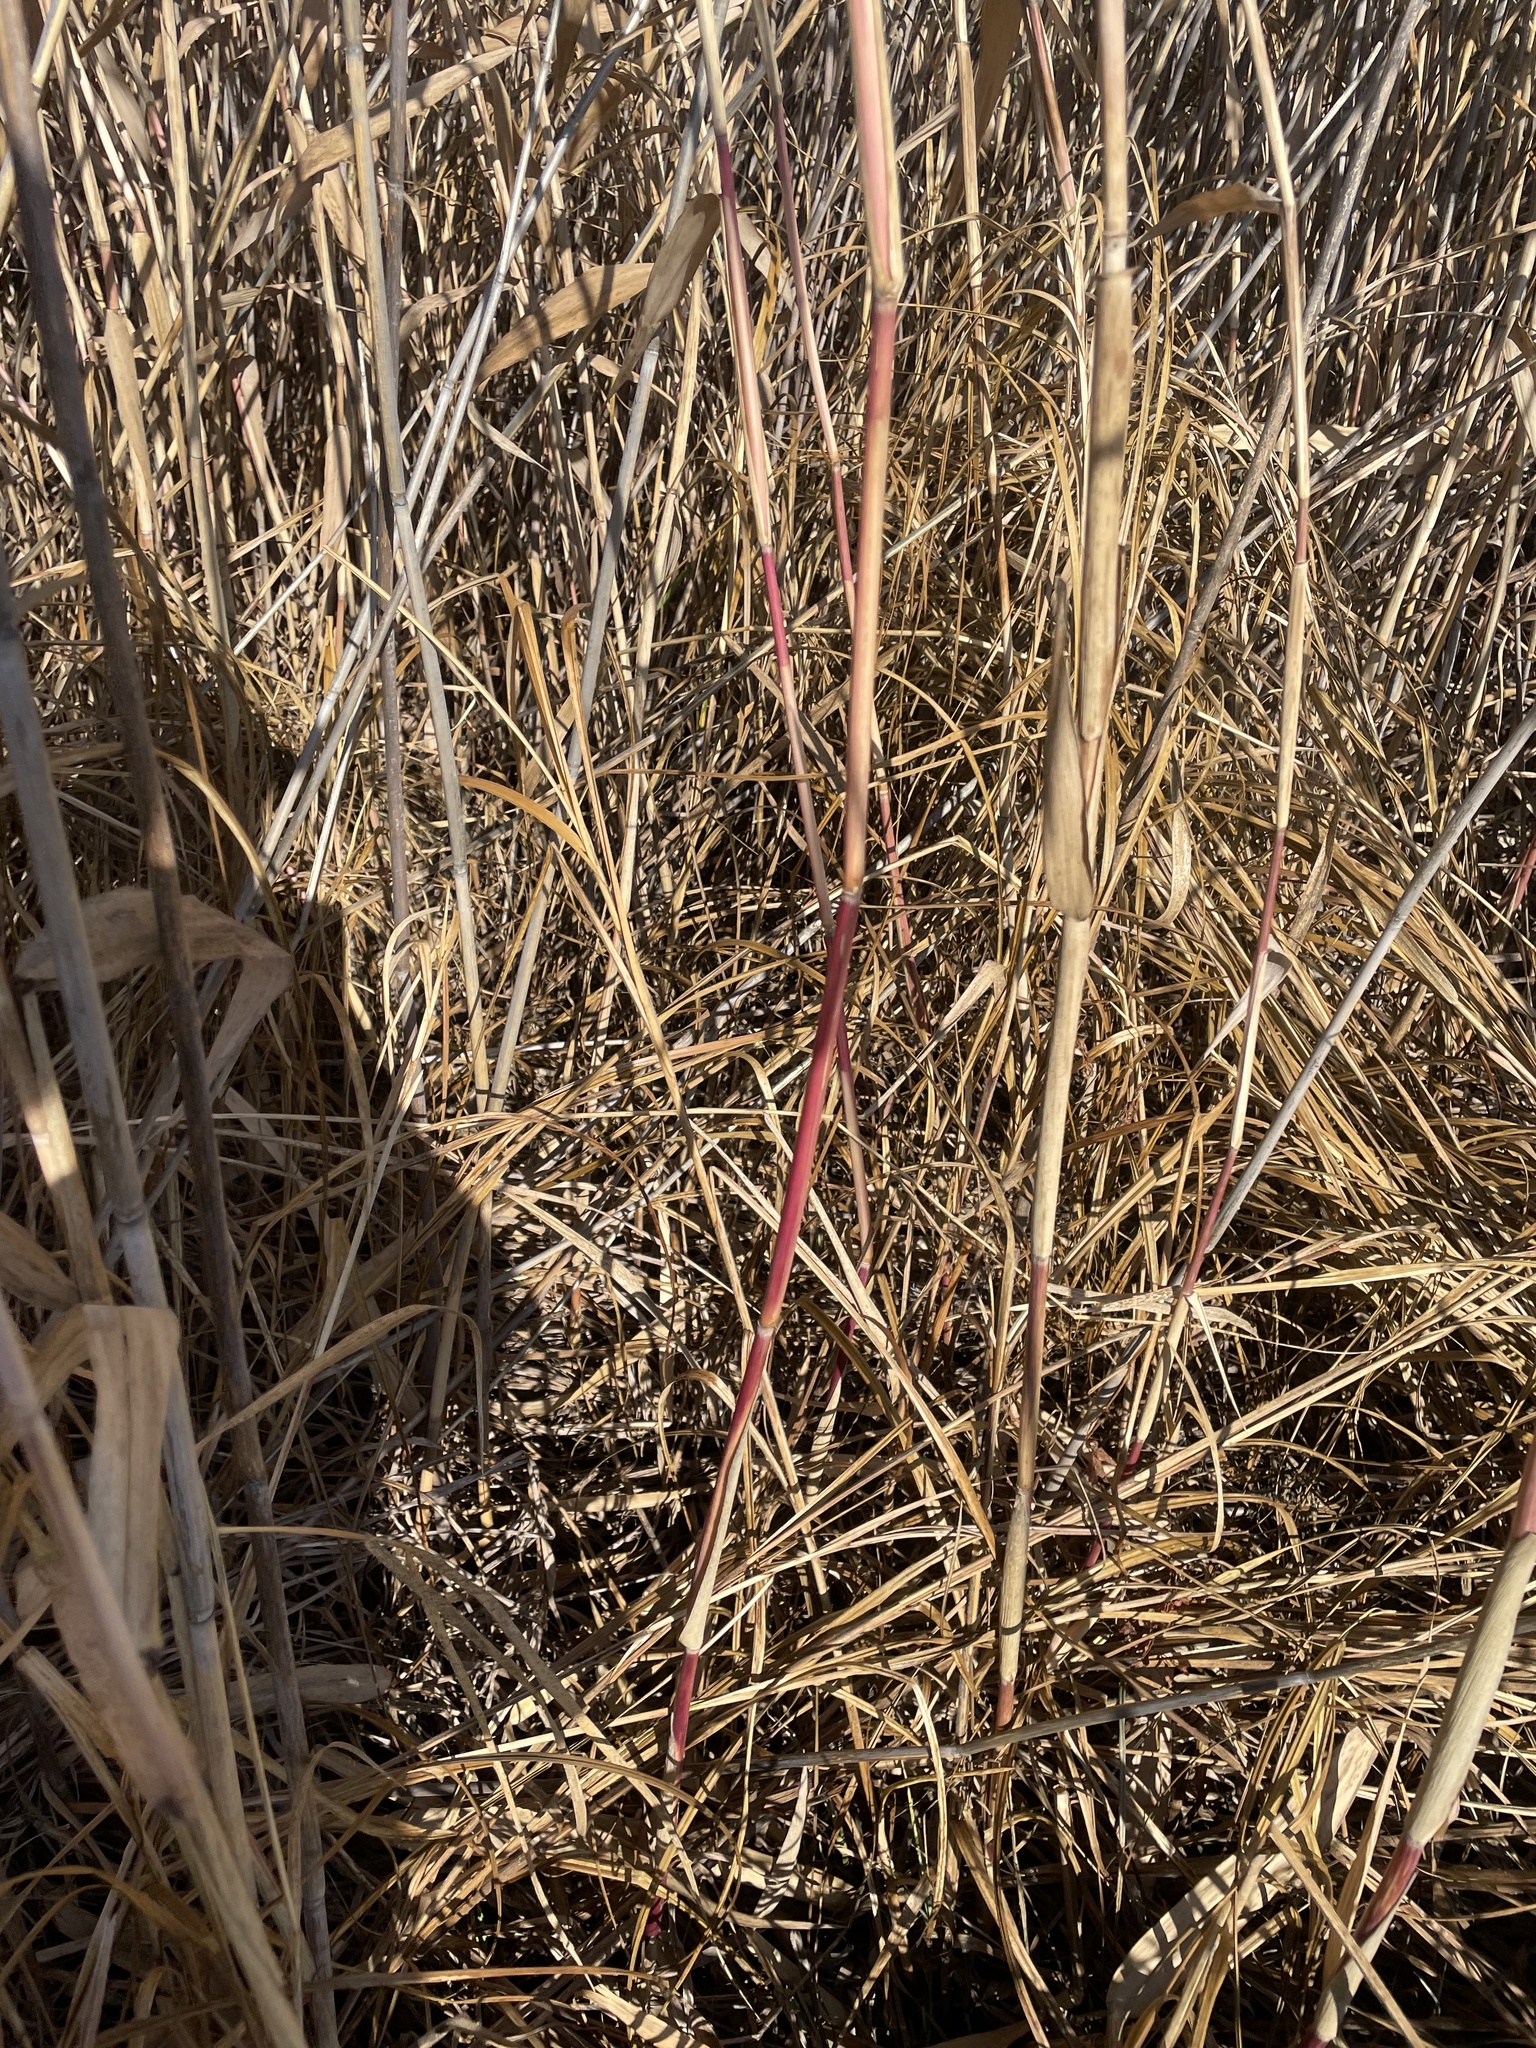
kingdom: Plantae
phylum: Tracheophyta
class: Liliopsida
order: Poales
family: Poaceae
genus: Phragmites
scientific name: Phragmites australis
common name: Common reed
